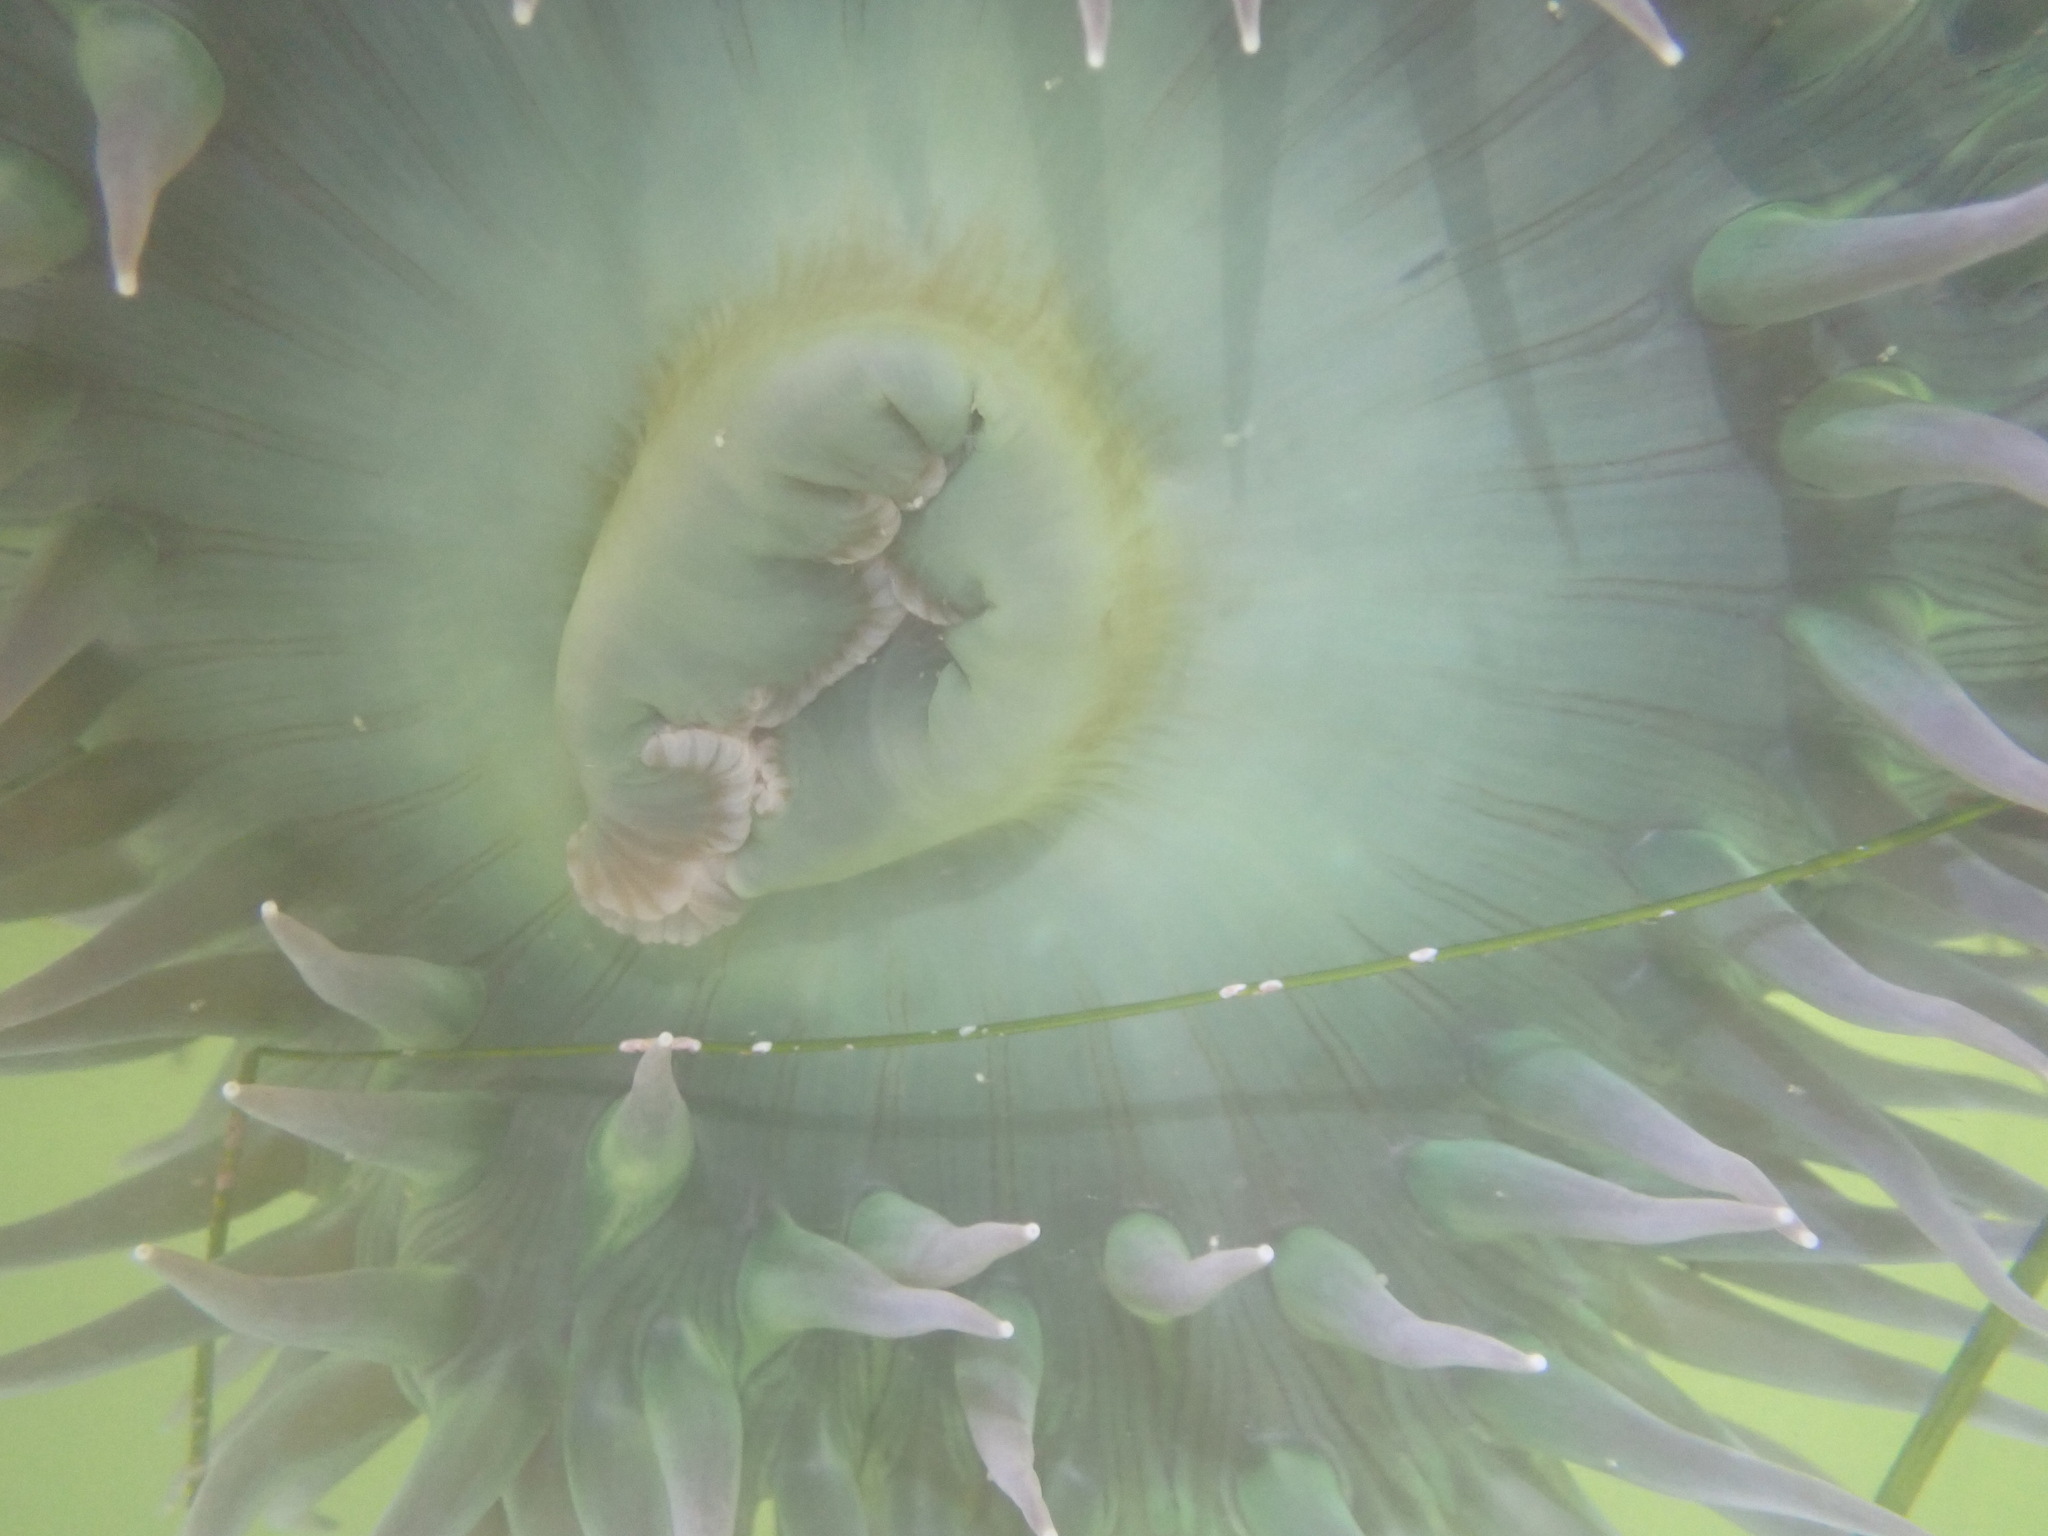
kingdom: Animalia
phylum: Cnidaria
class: Anthozoa
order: Actiniaria
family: Actiniidae
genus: Anthopleura
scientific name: Anthopleura xanthogrammica
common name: Giant green anemone
